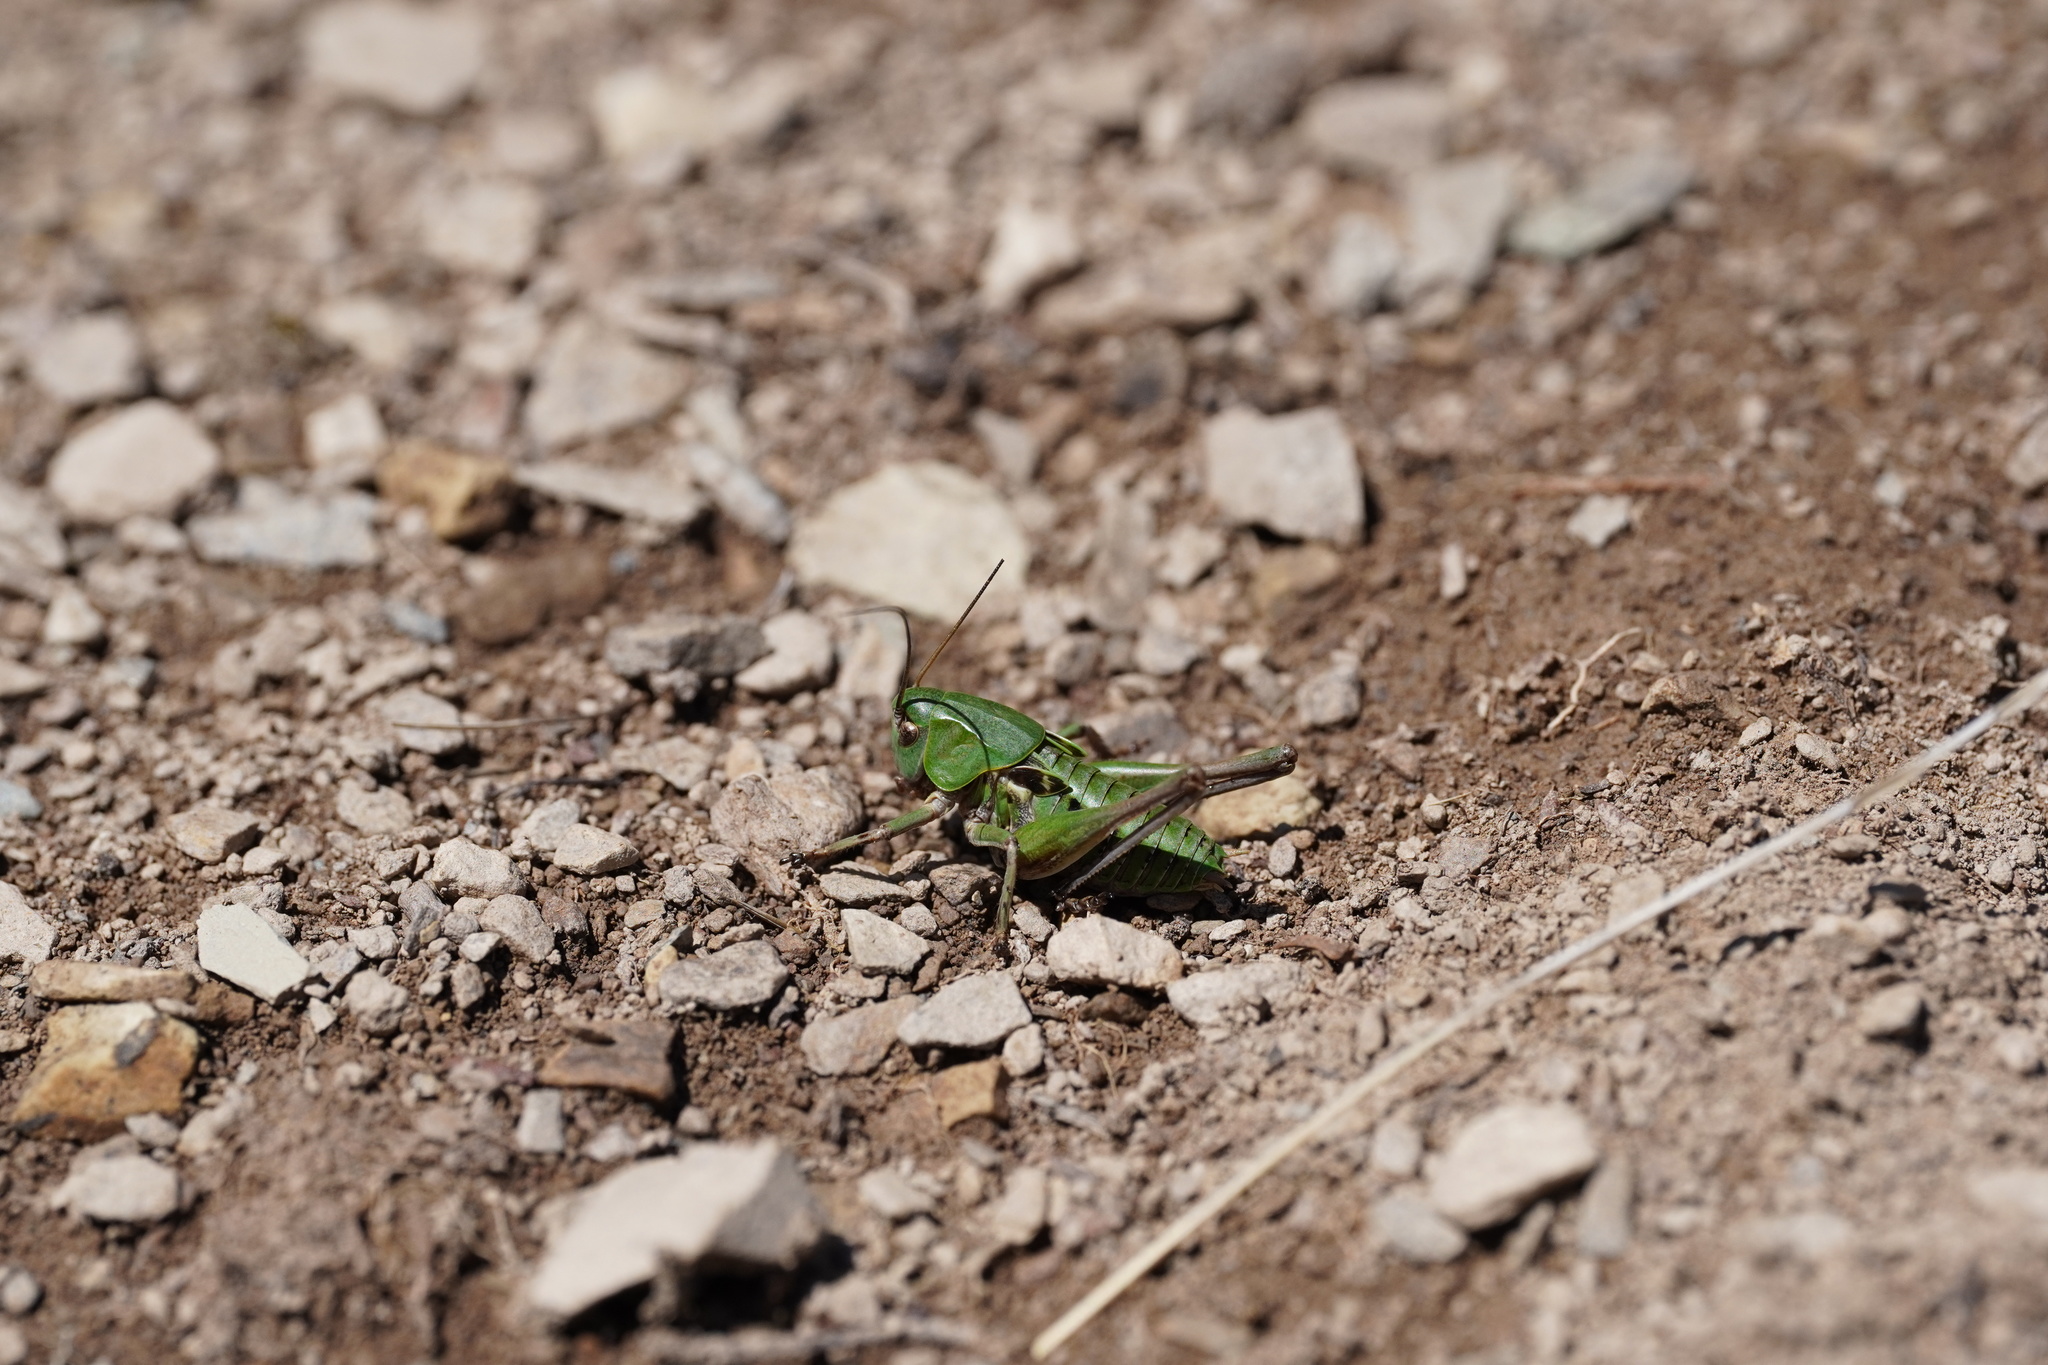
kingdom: Animalia
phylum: Arthropoda
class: Insecta
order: Orthoptera
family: Tettigoniidae
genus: Decticus
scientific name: Decticus verrucivorus
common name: Wart-biter
